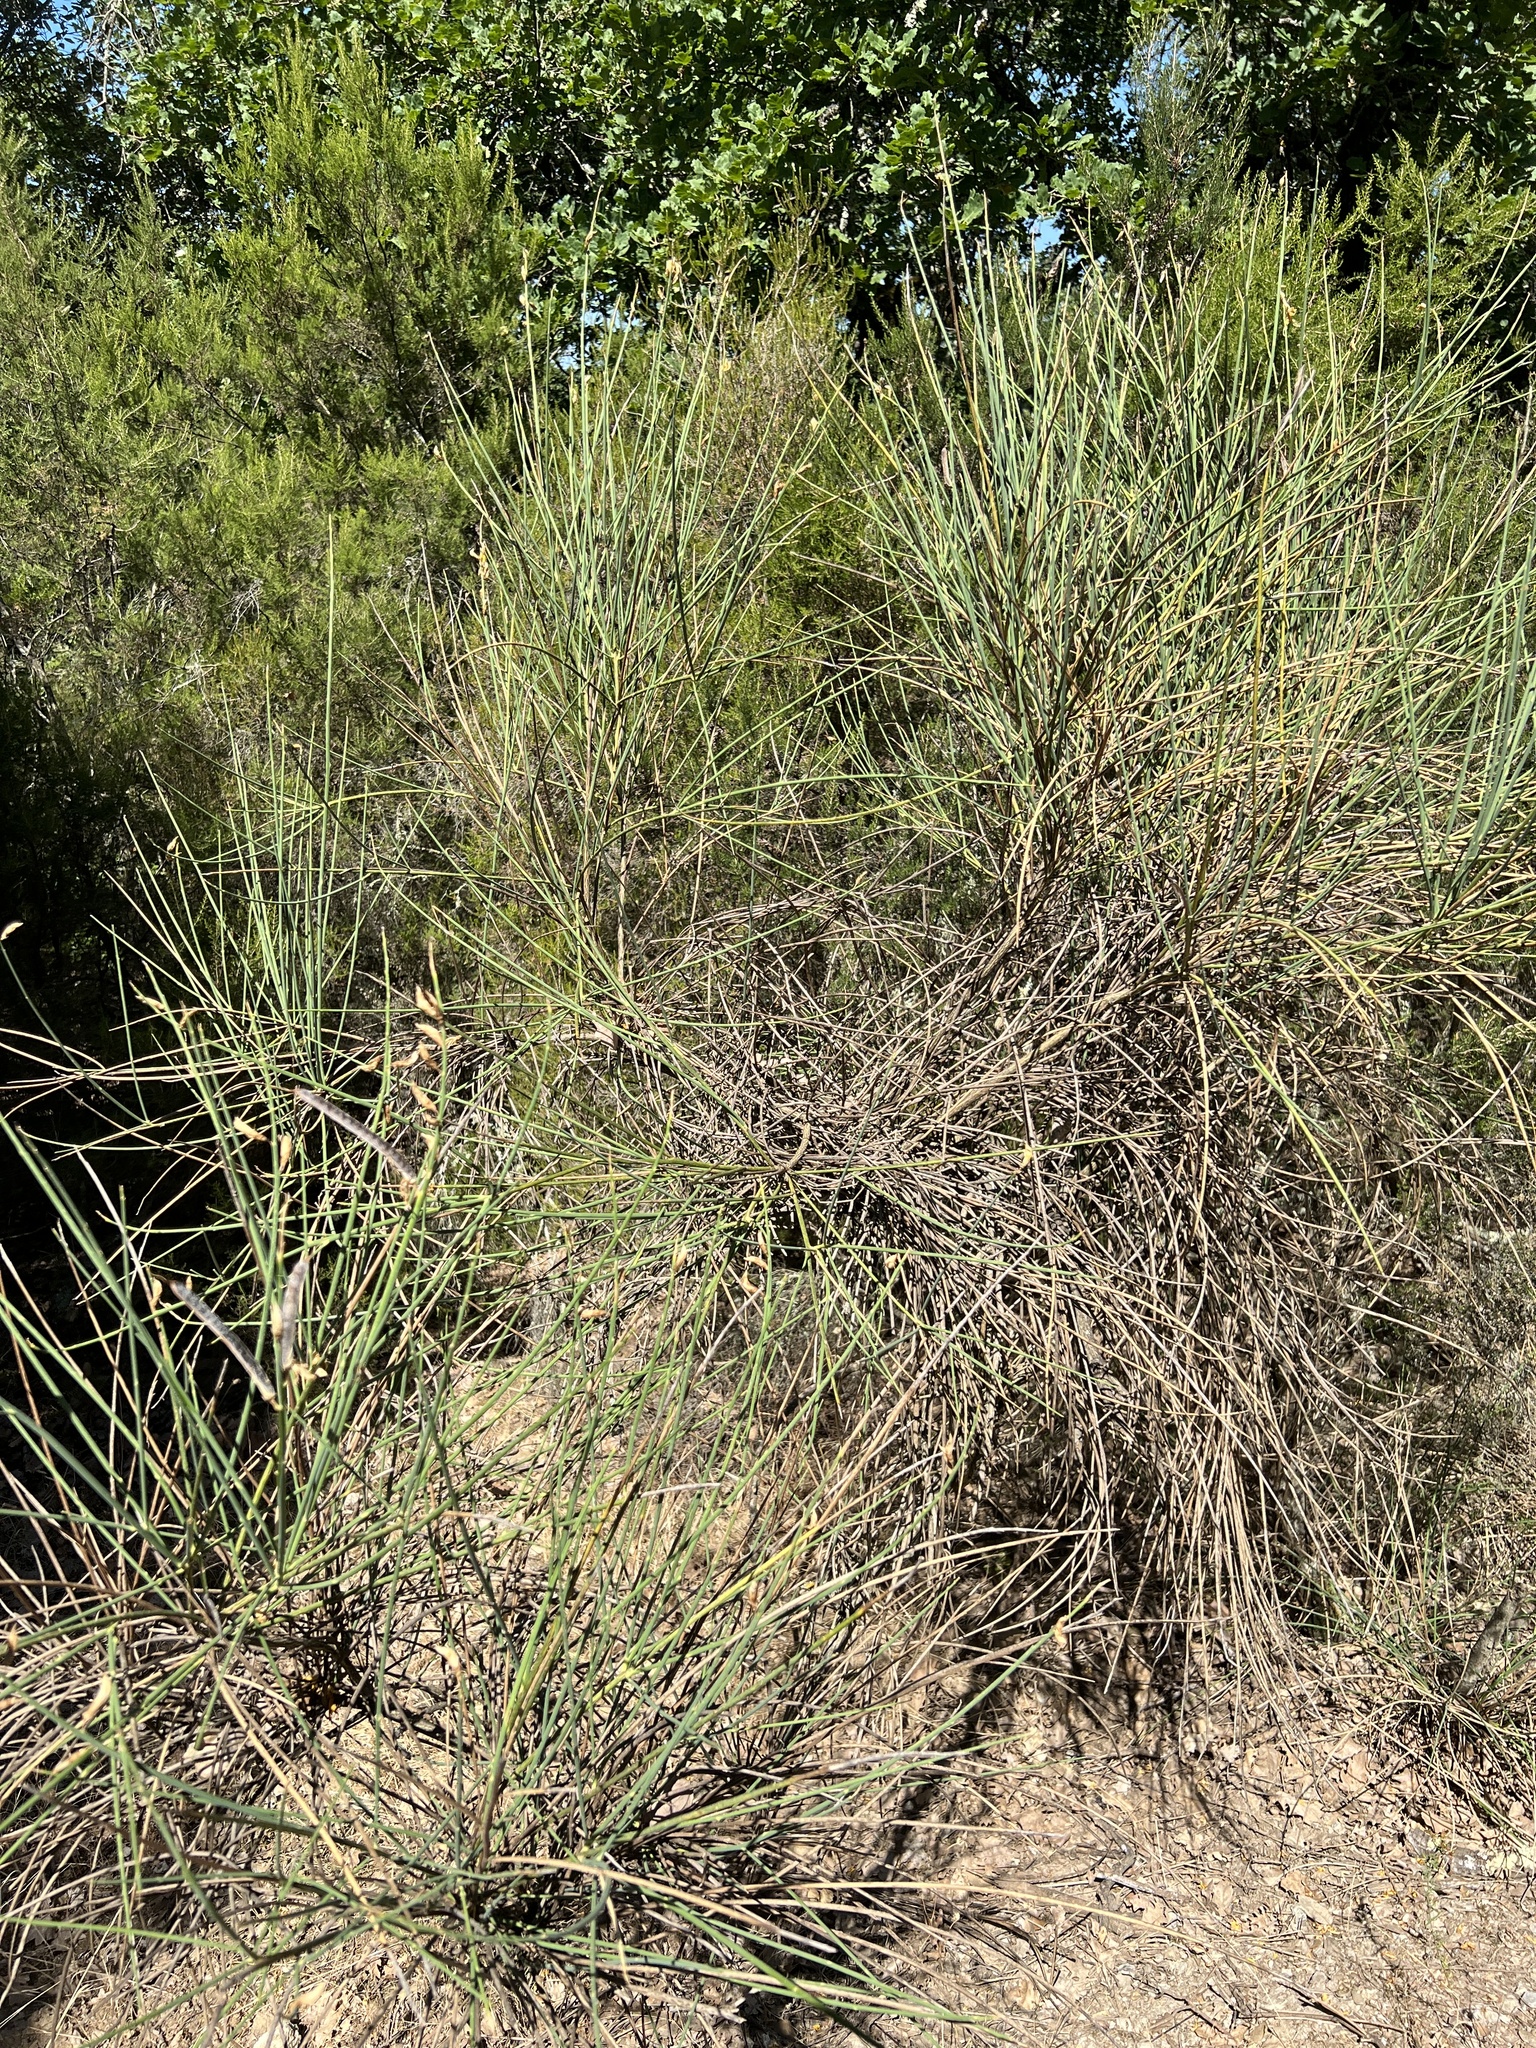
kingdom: Plantae
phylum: Tracheophyta
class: Magnoliopsida
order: Fabales
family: Fabaceae
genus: Spartium
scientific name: Spartium junceum
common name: Spanish broom
